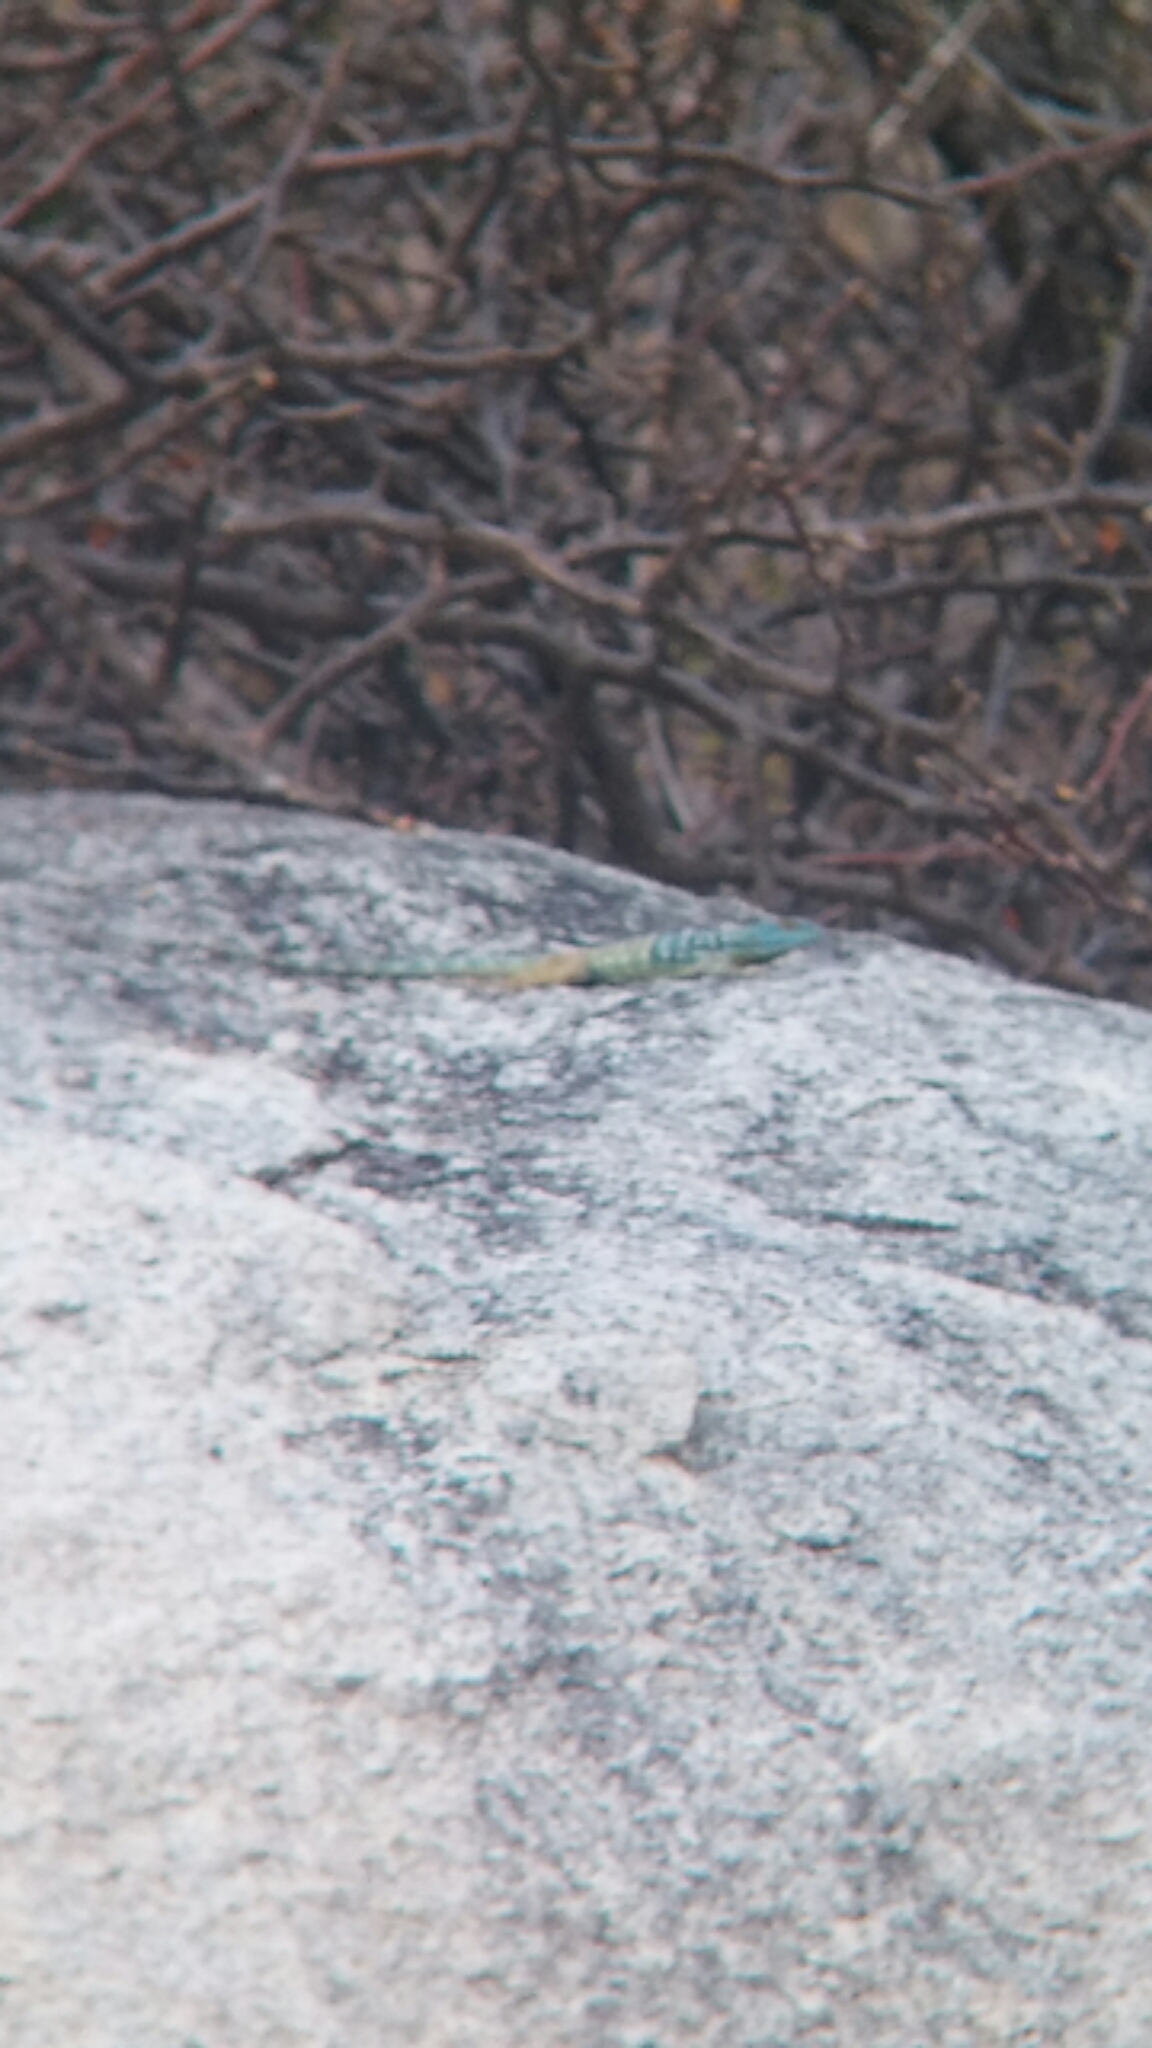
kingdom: Animalia
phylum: Chordata
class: Squamata
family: Phrynosomatidae
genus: Petrosaurus
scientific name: Petrosaurus thalassinus
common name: Baja california rock lizard
